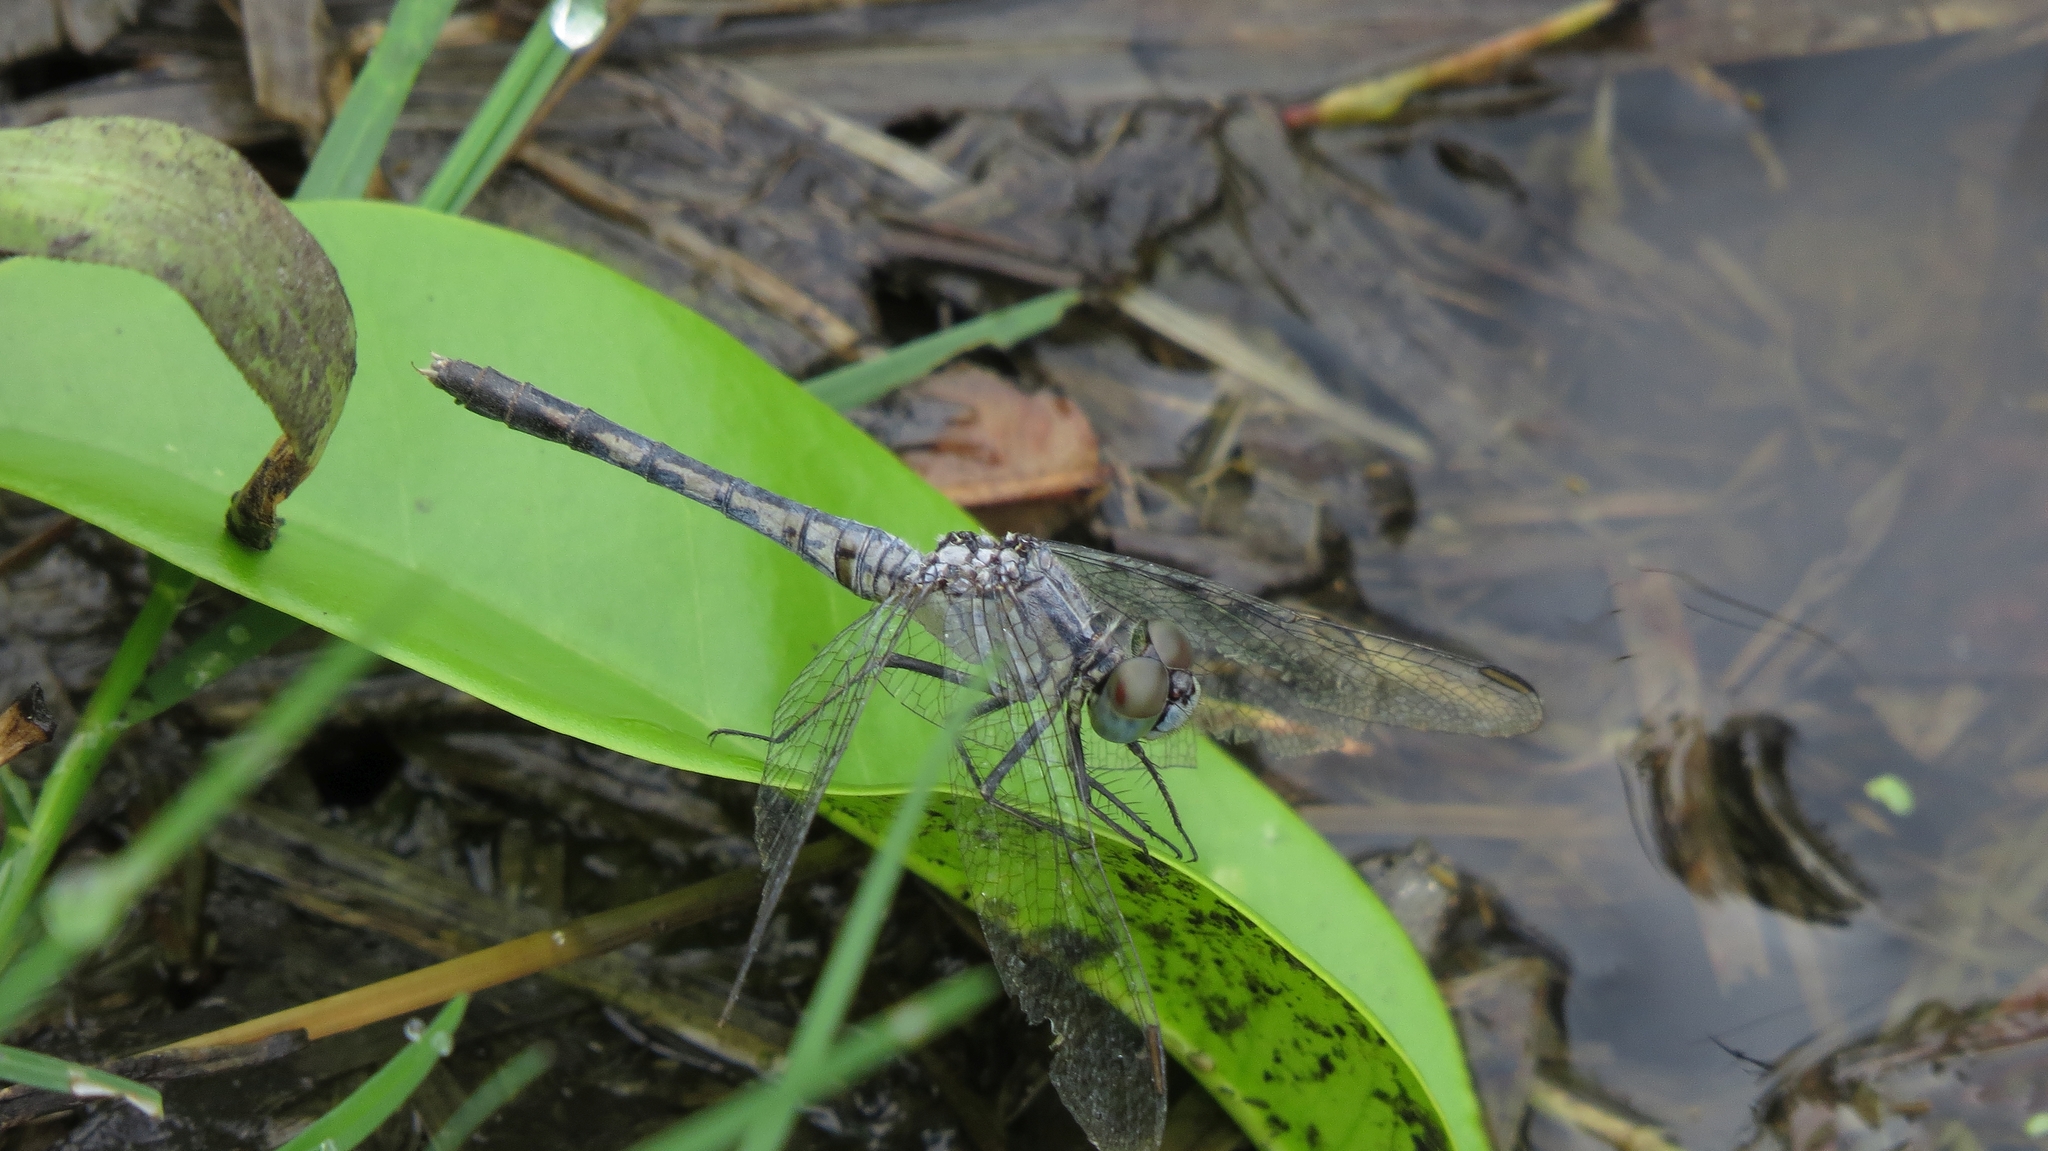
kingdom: Animalia
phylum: Arthropoda
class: Insecta
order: Odonata
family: Libellulidae
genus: Diplacodes
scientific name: Diplacodes trivialis
